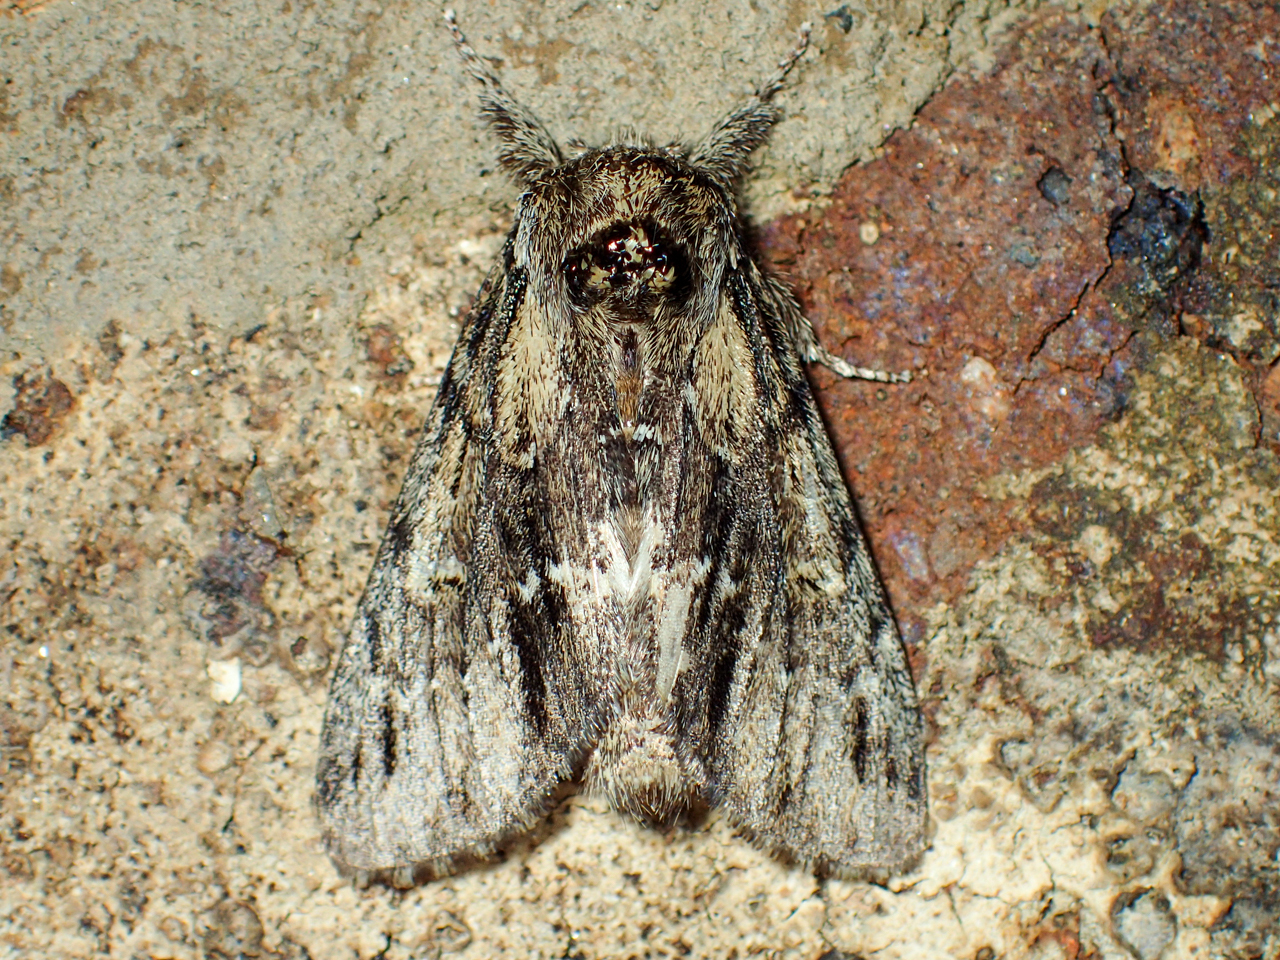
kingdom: Animalia
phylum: Arthropoda
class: Insecta
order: Lepidoptera
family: Notodontidae
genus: Paraeschra
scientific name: Paraeschra georgica
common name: Georgian prominent
